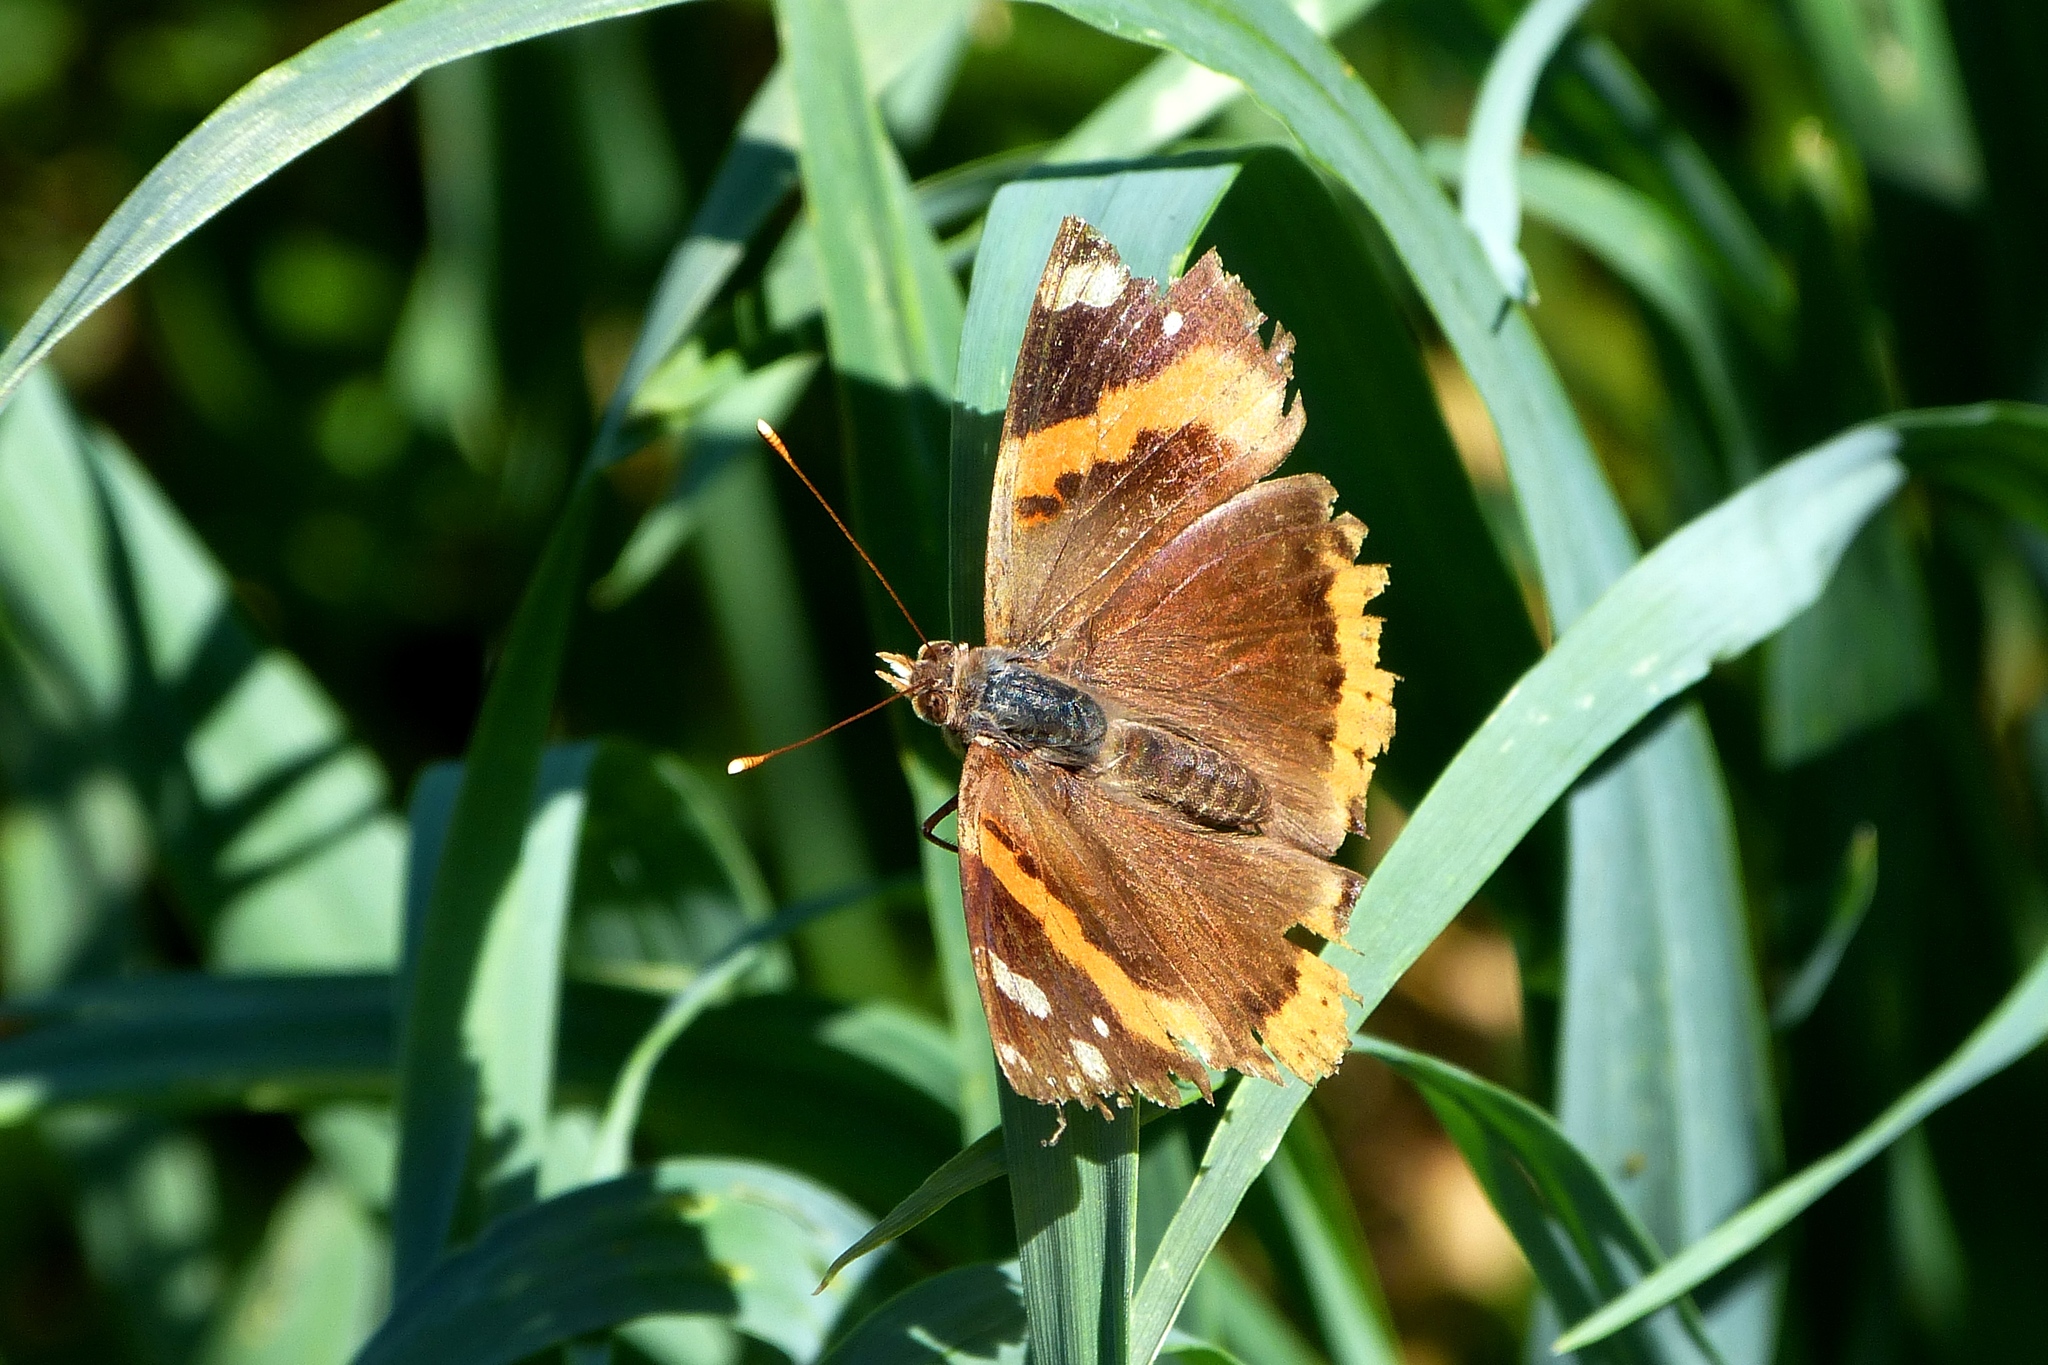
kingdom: Animalia
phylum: Arthropoda
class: Insecta
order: Lepidoptera
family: Nymphalidae
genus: Vanessa
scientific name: Vanessa atalanta
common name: Red admiral
